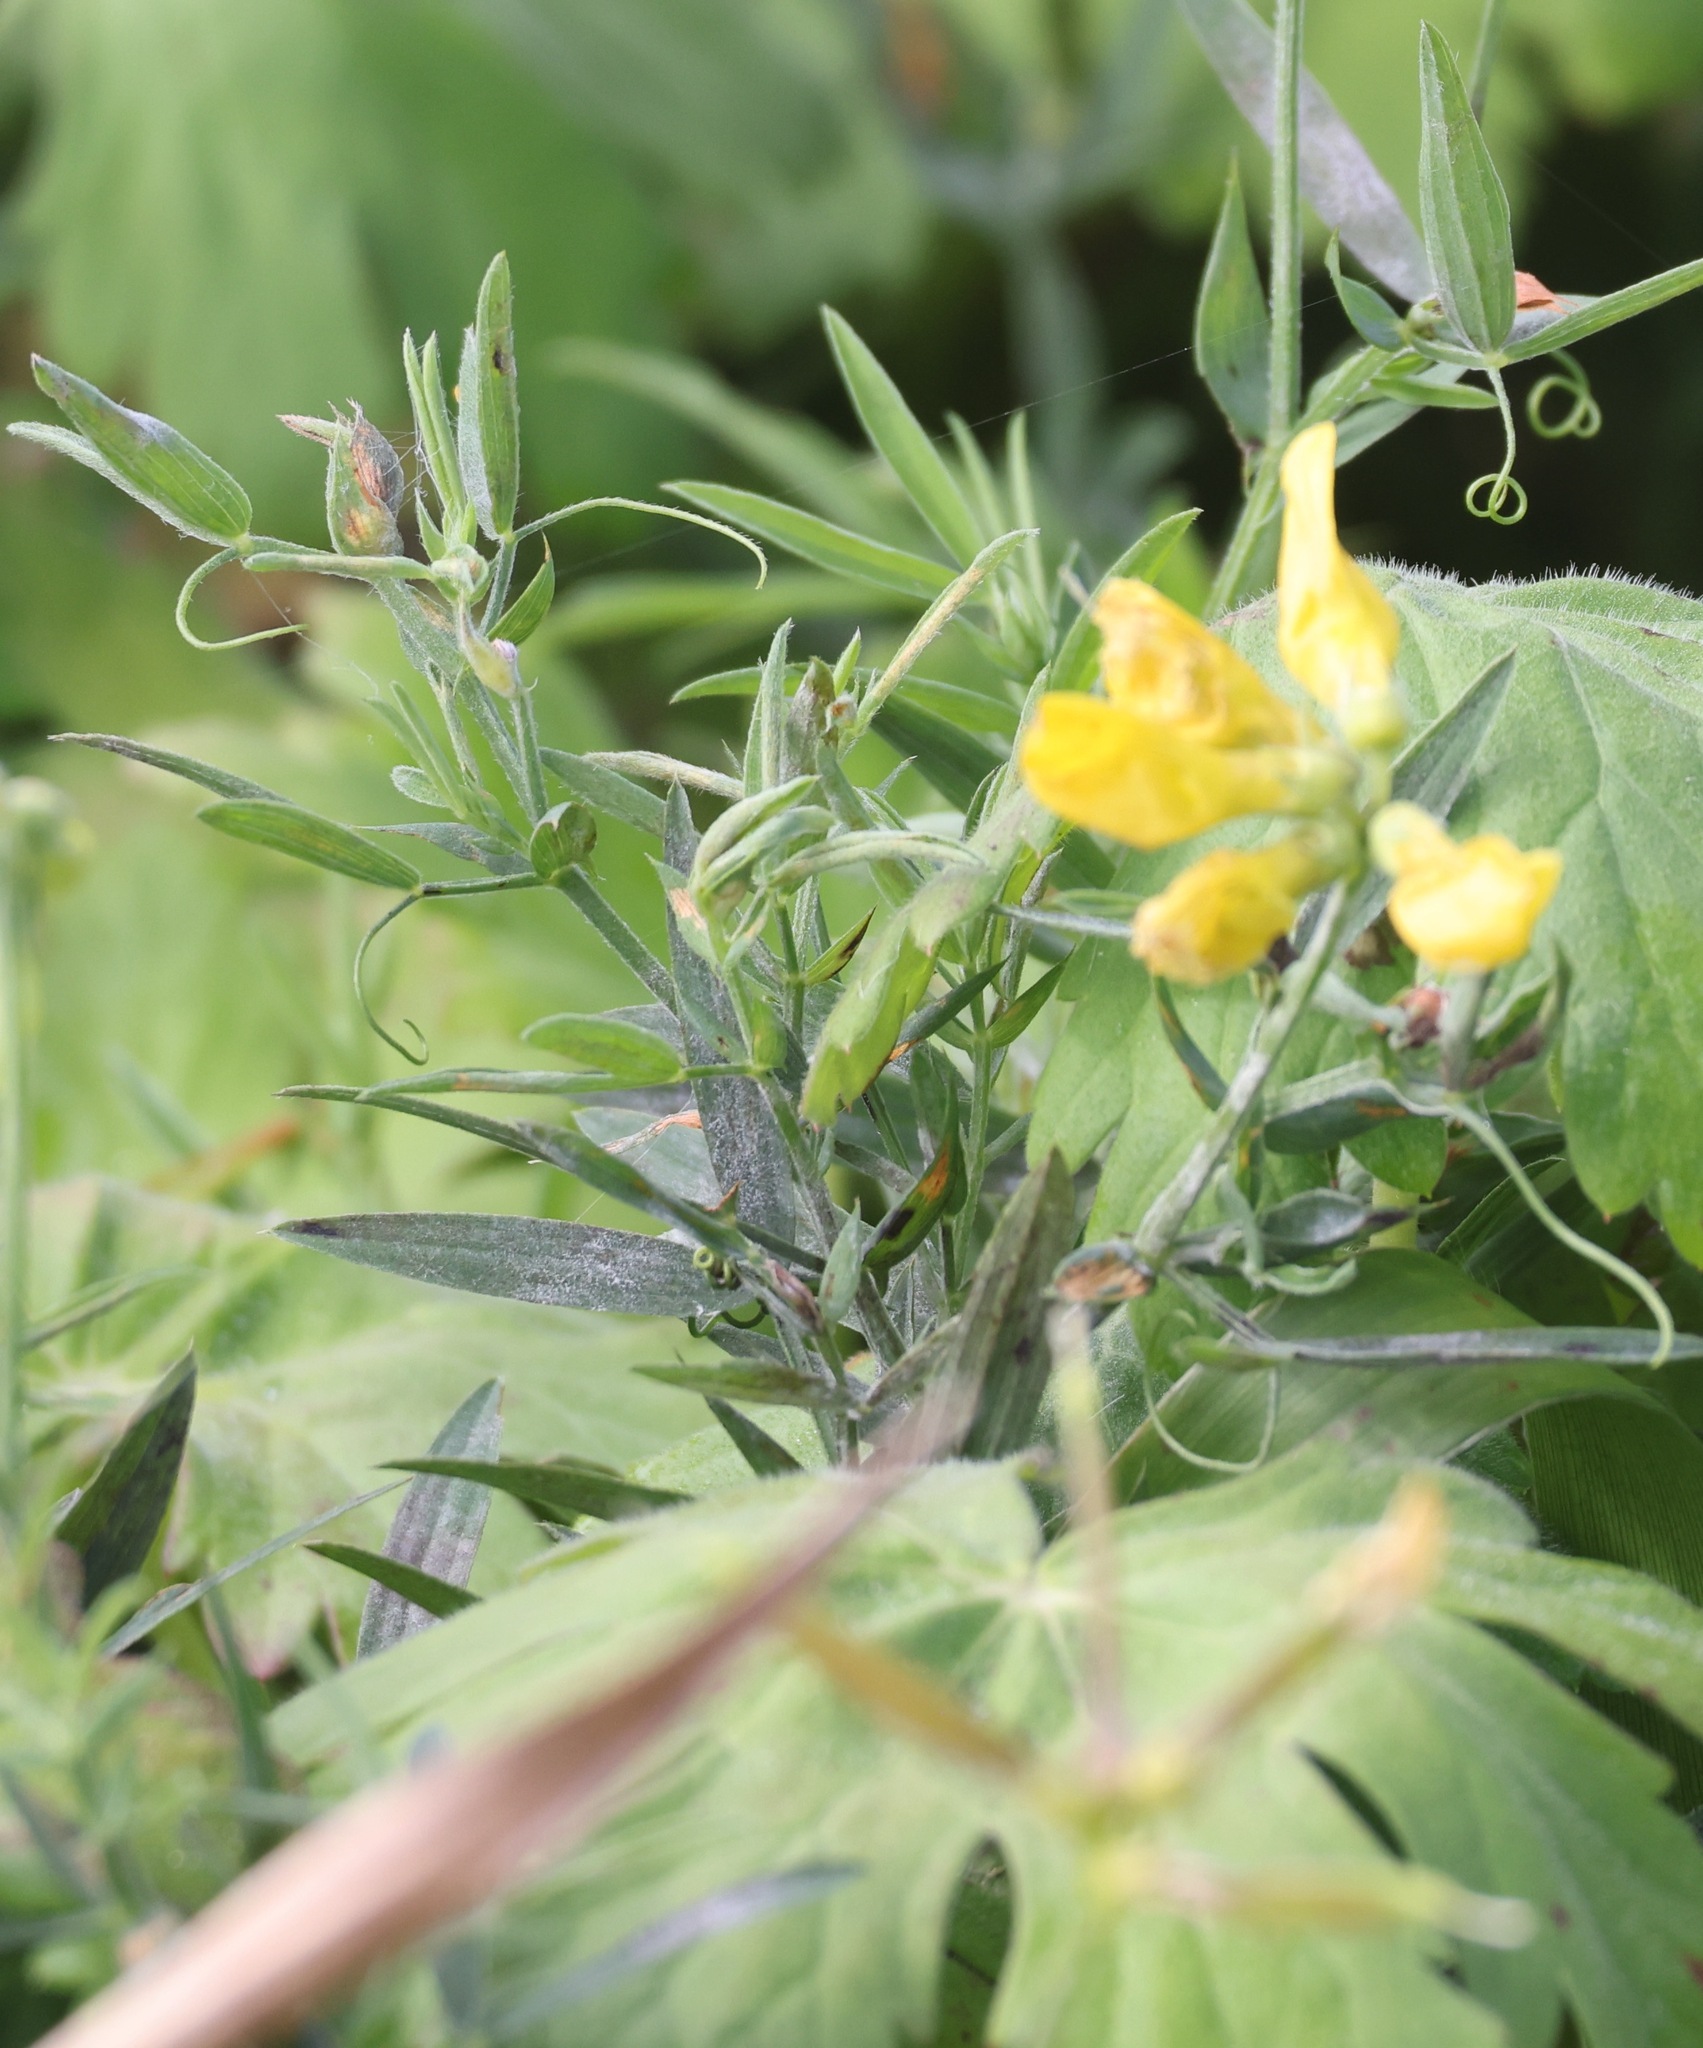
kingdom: Plantae
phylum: Tracheophyta
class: Magnoliopsida
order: Fabales
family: Fabaceae
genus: Lathyrus
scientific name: Lathyrus pratensis
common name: Meadow vetchling
